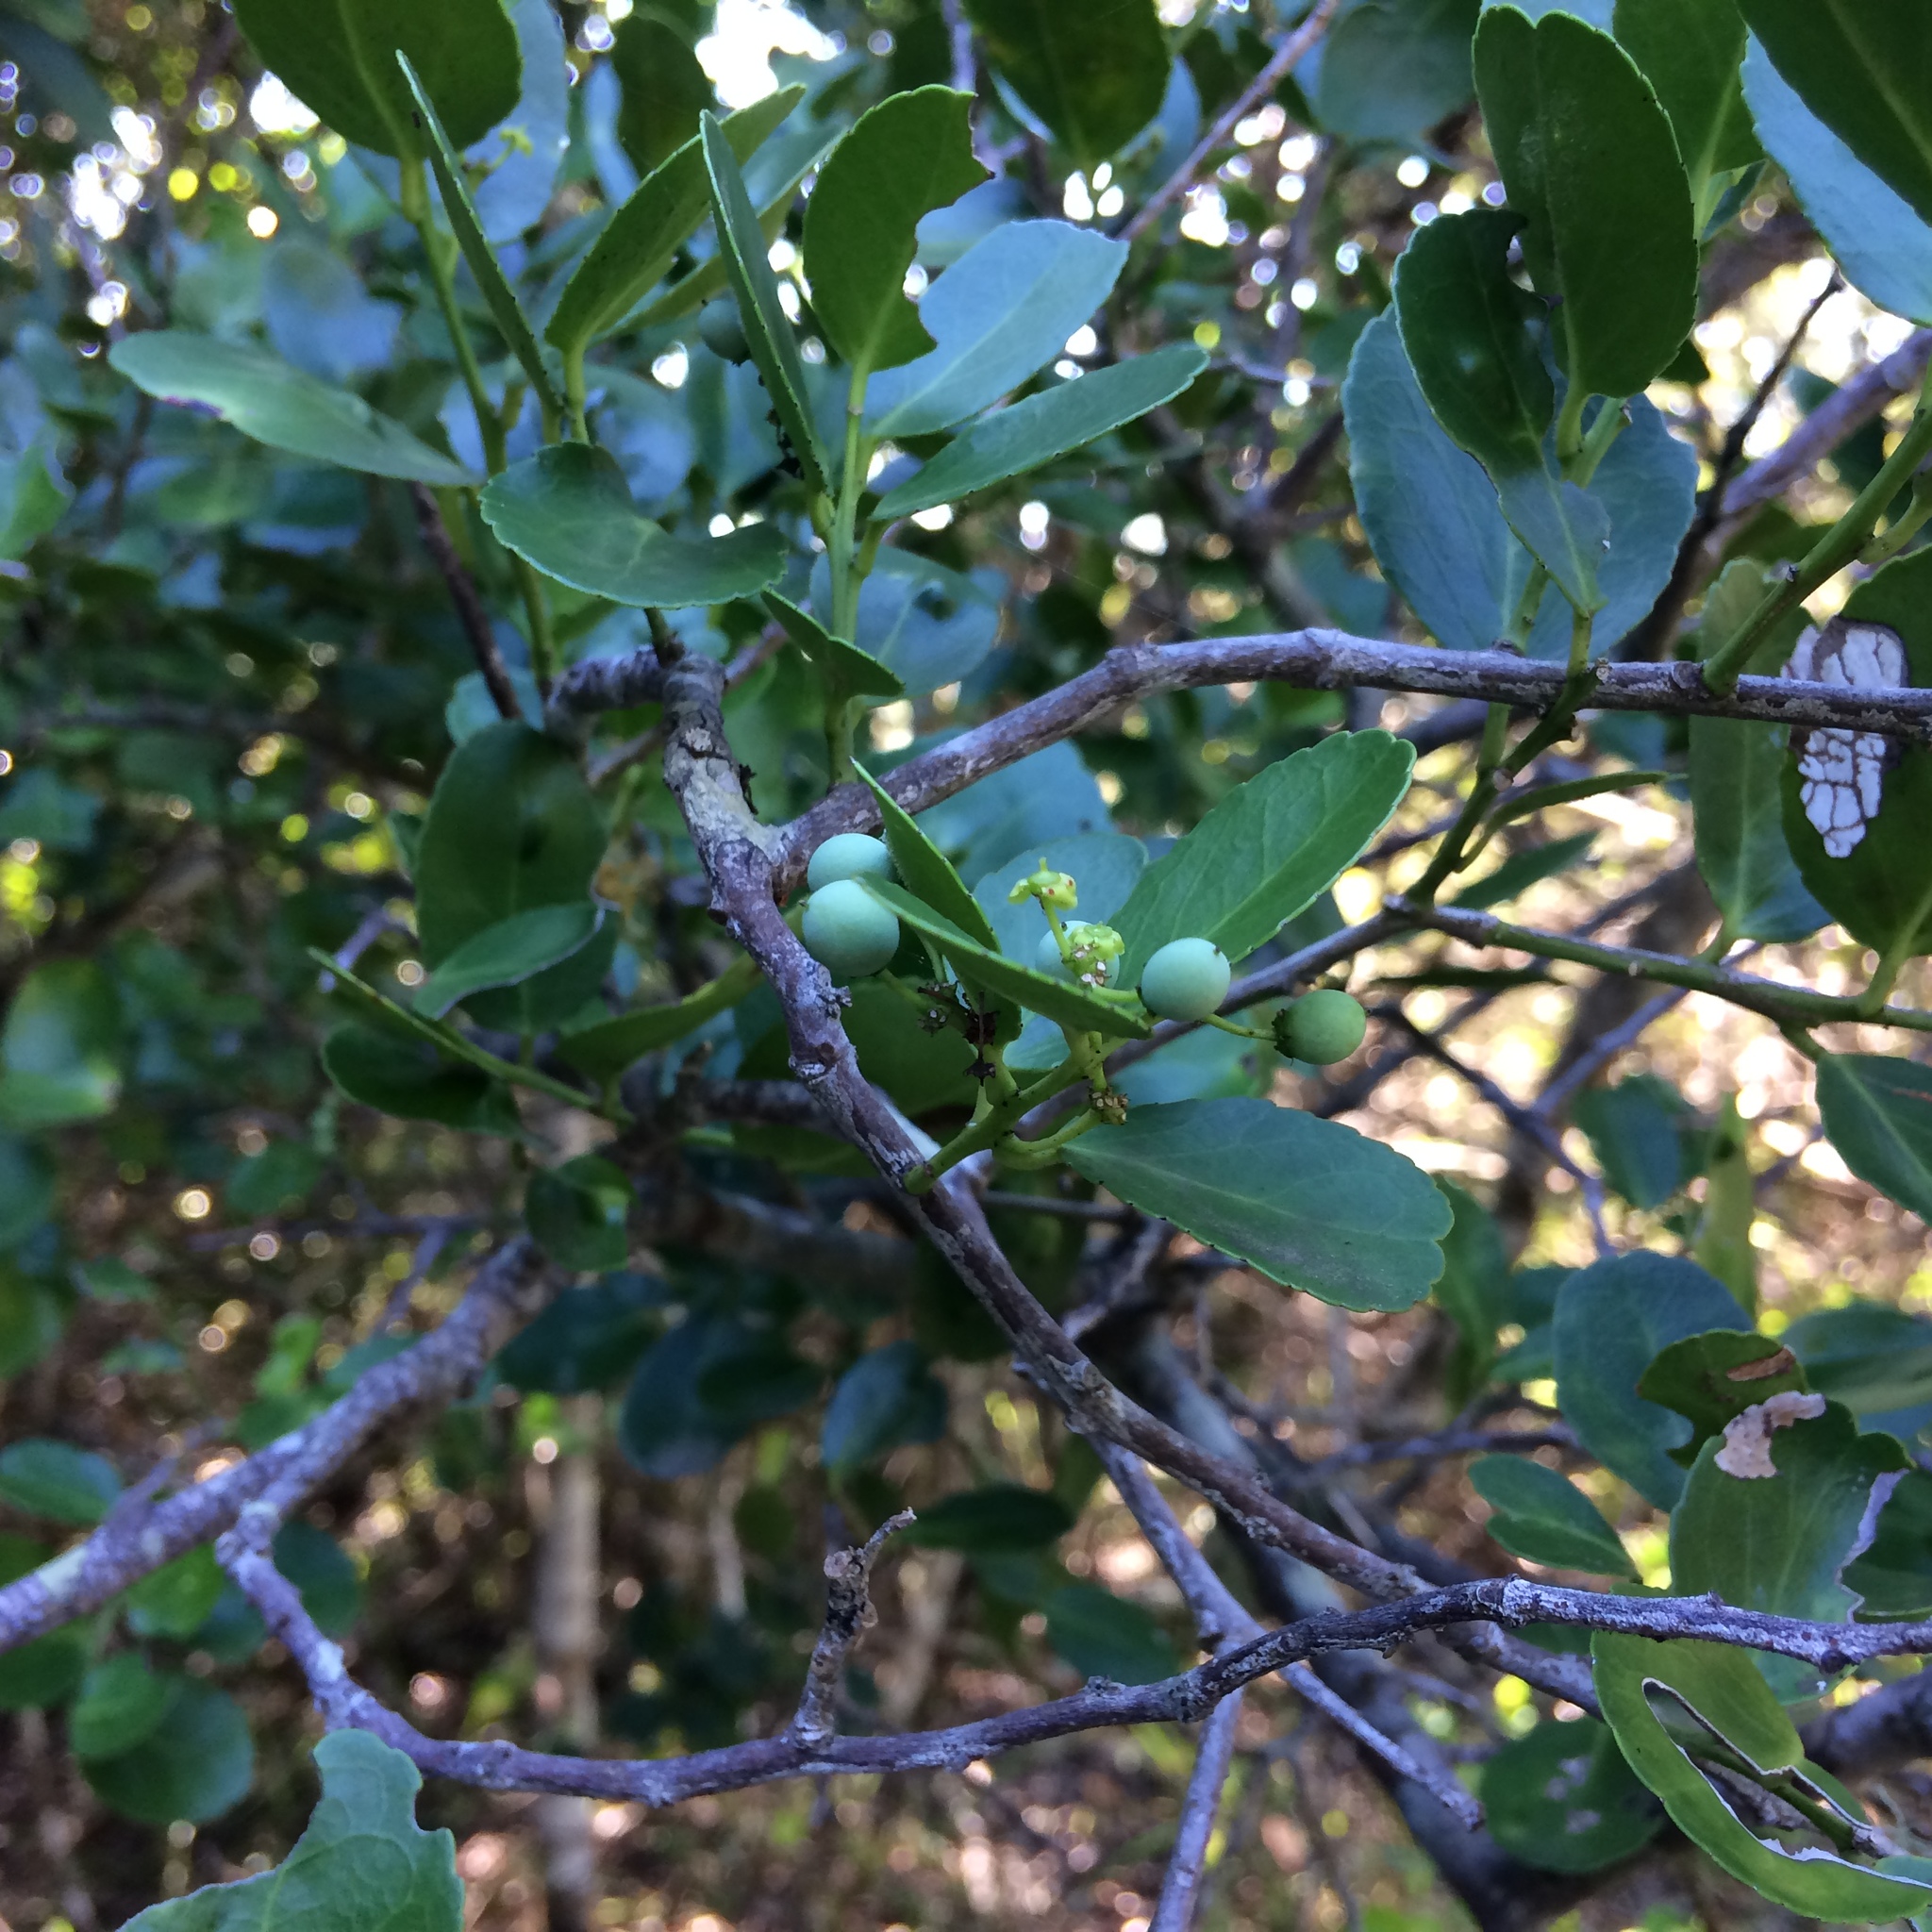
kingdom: Plantae
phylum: Tracheophyta
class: Magnoliopsida
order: Celastrales
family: Celastraceae
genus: Mystroxylon
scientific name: Mystroxylon aethiopicum
